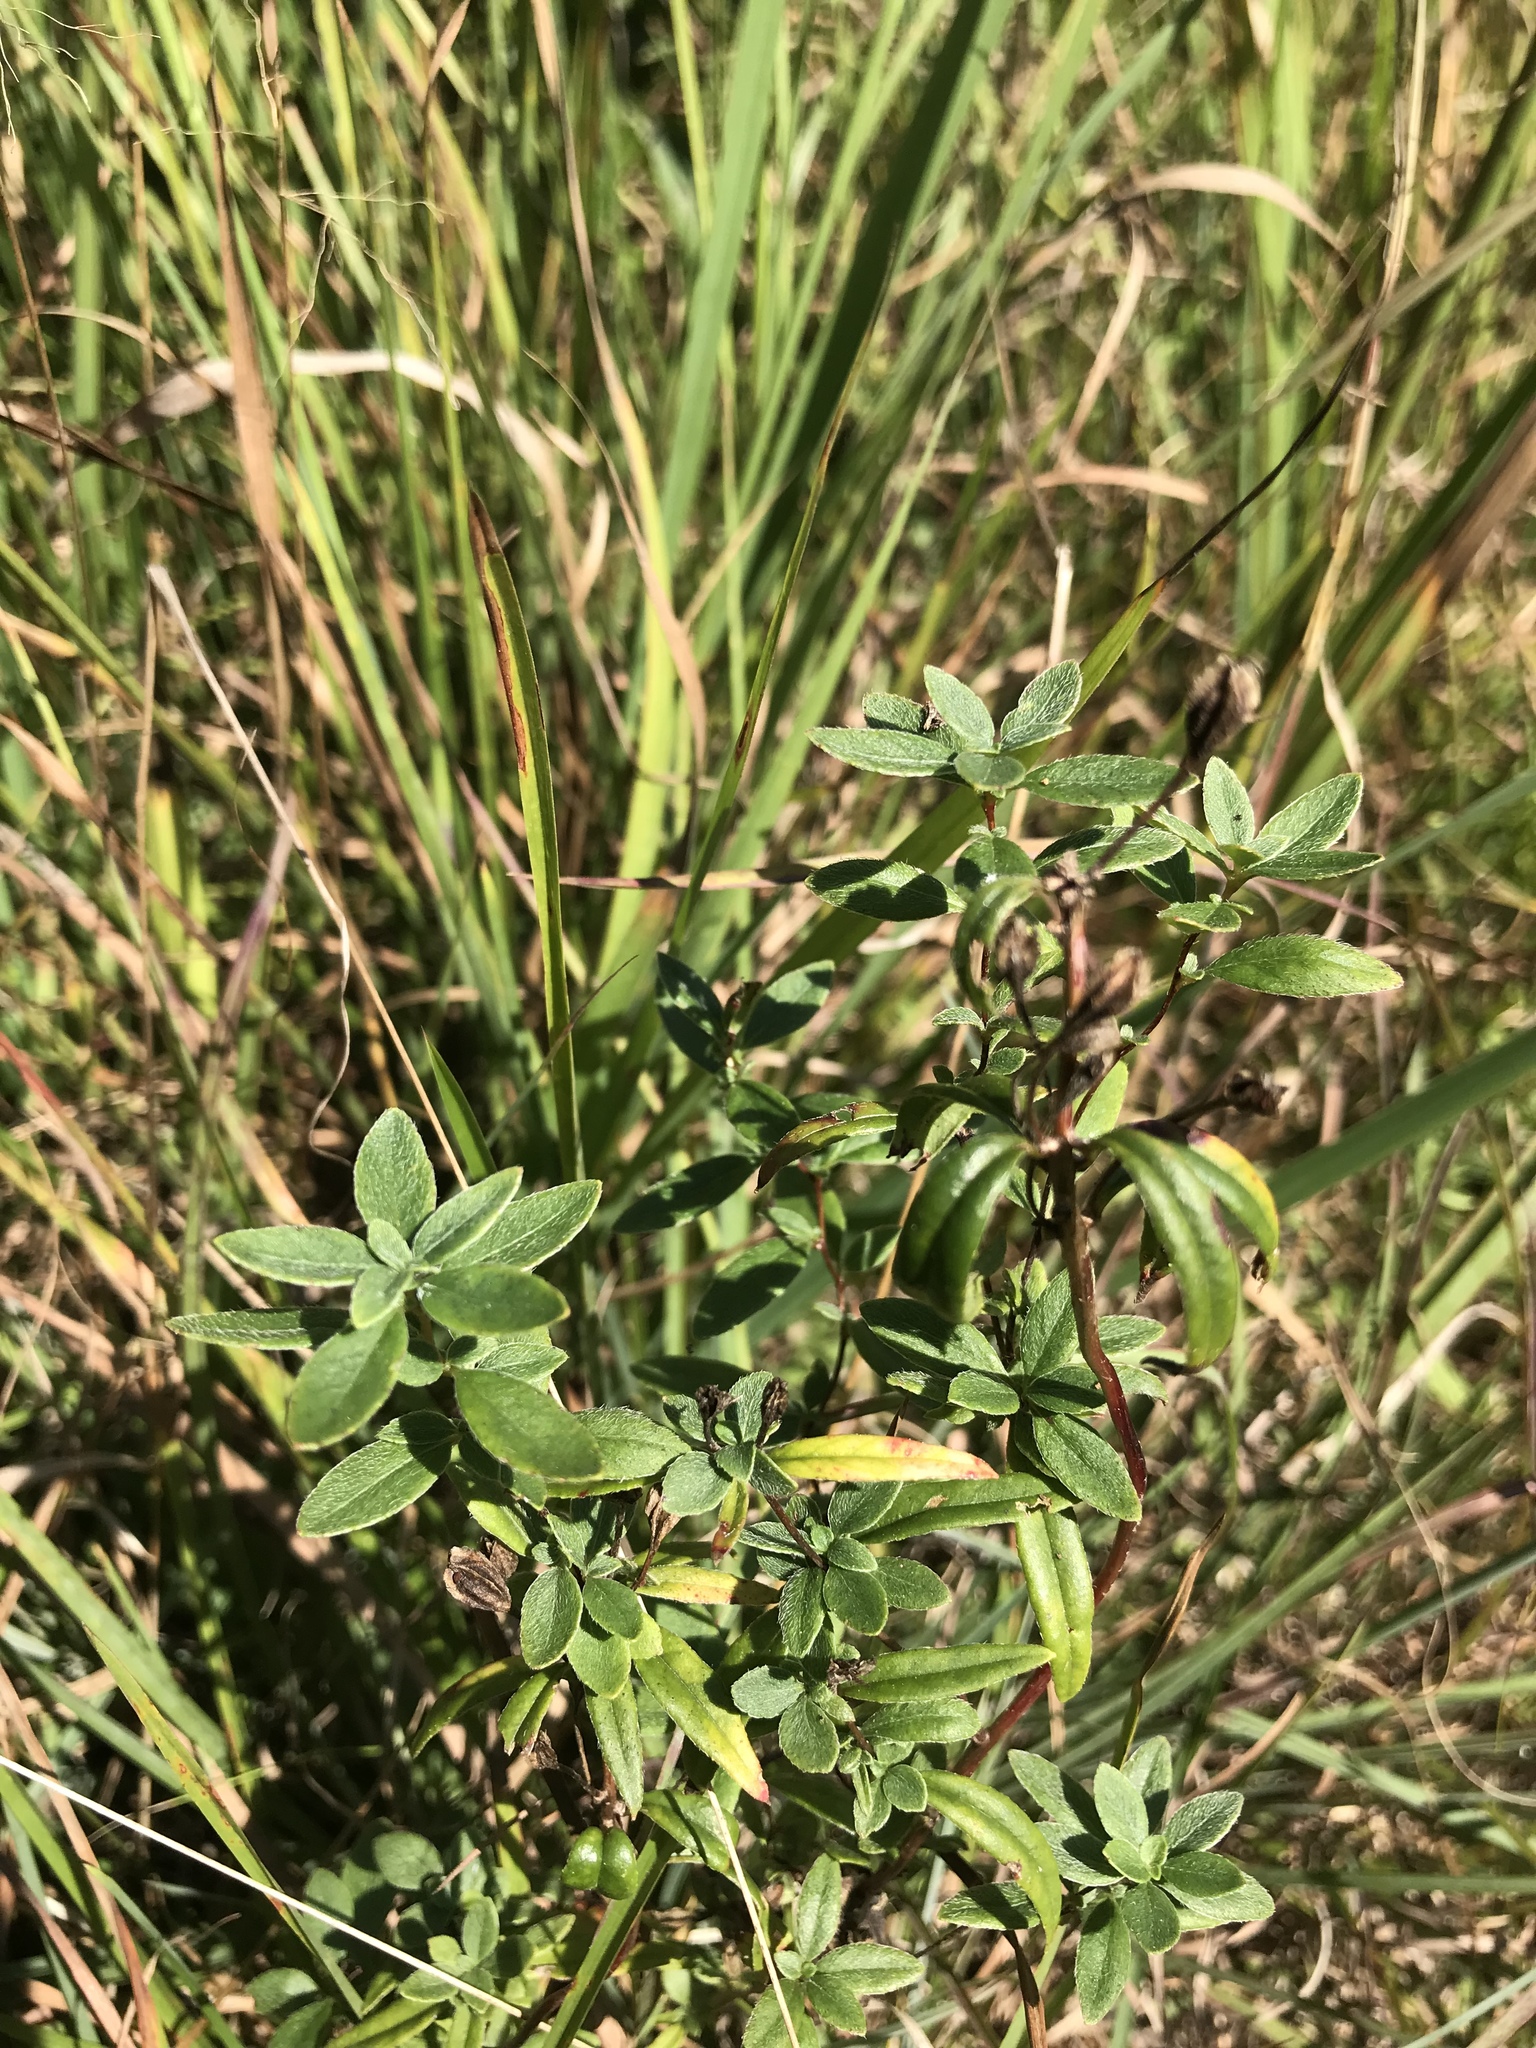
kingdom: Plantae
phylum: Tracheophyta
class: Magnoliopsida
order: Myrtales
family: Onagraceae
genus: Oenothera
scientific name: Oenothera fruticosa
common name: Southern sundrops
